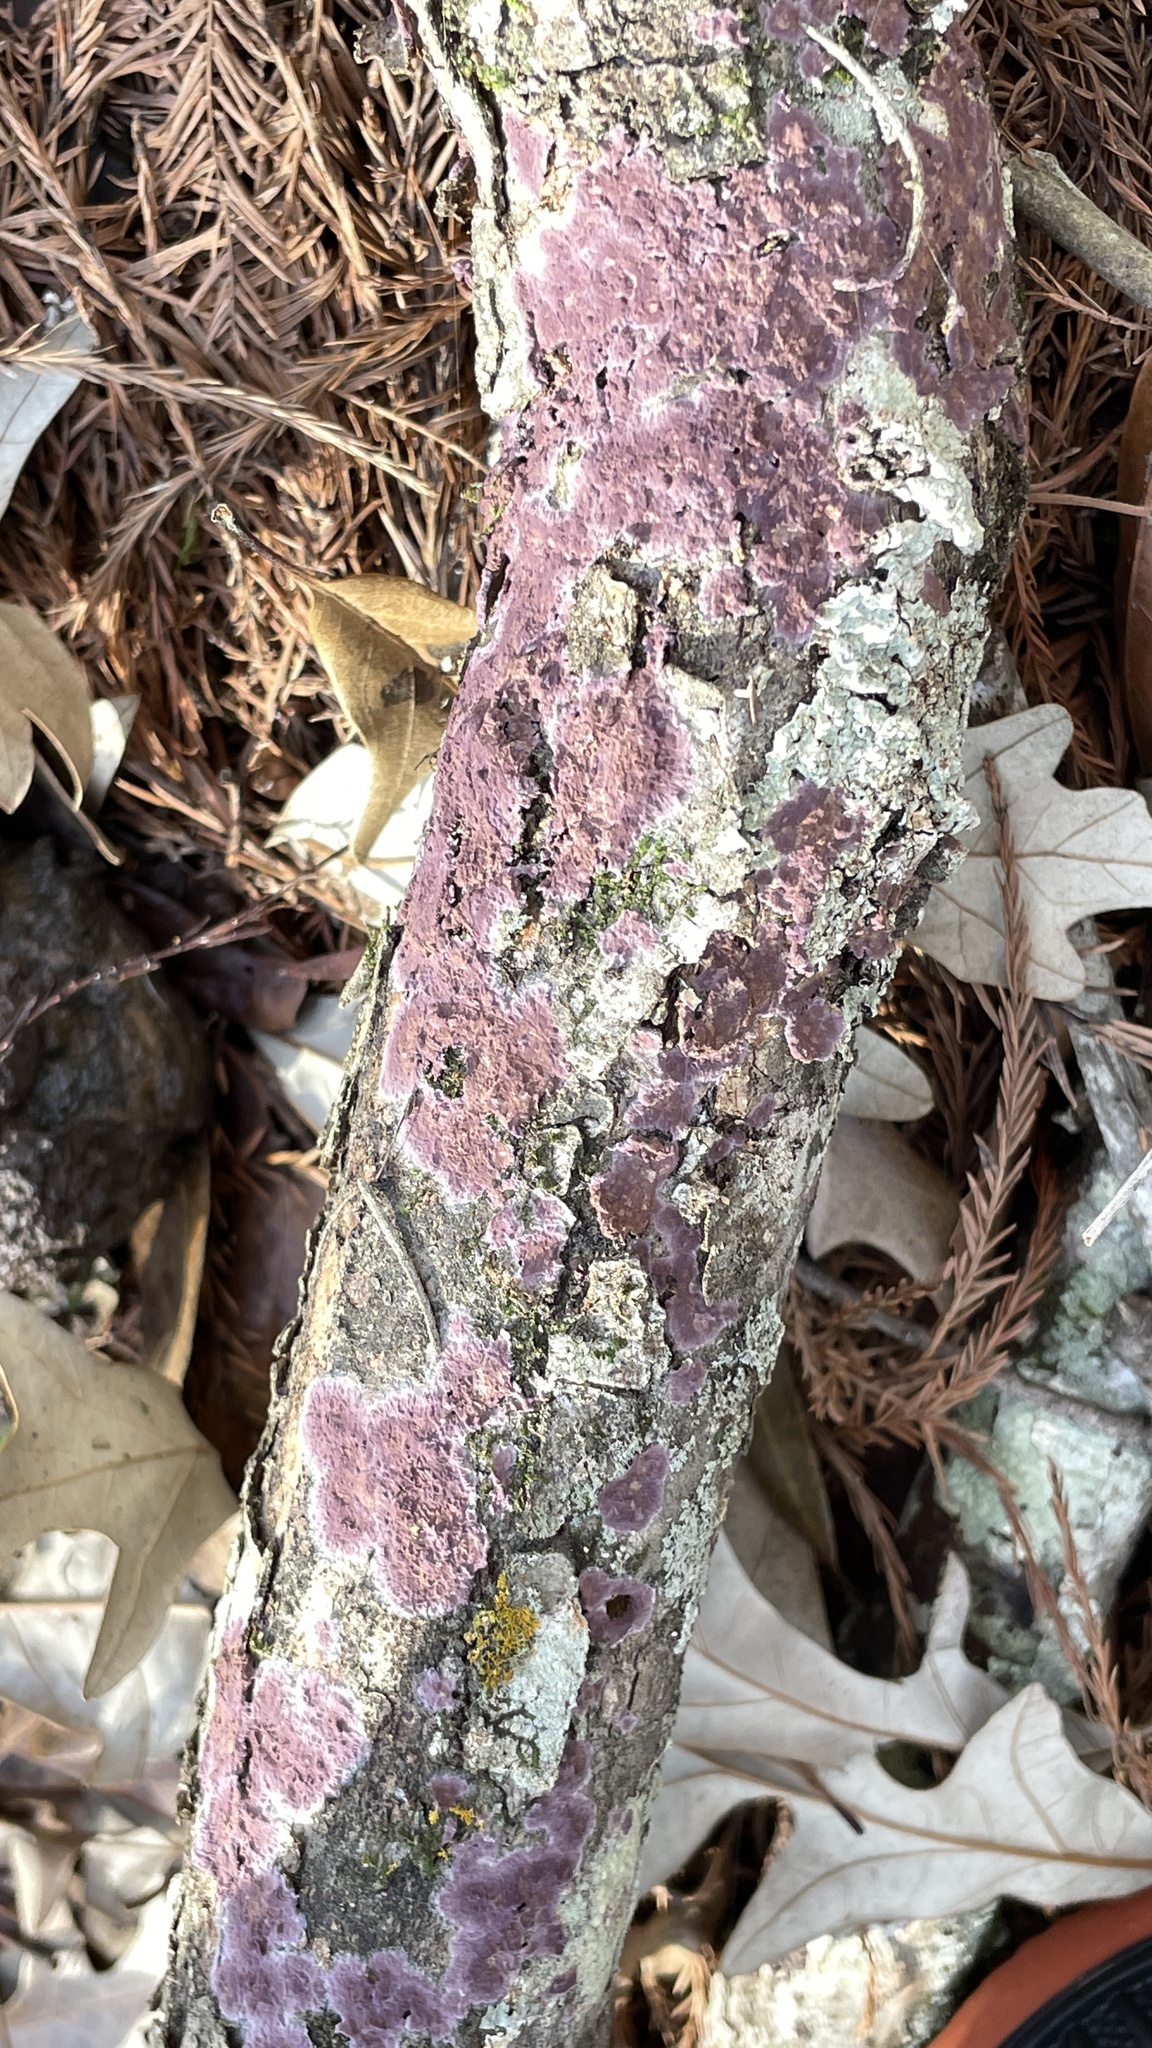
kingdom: Fungi
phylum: Basidiomycota
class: Agaricomycetes
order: Polyporales
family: Phanerochaetaceae
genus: Phlebiopsis
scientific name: Phlebiopsis crassa
